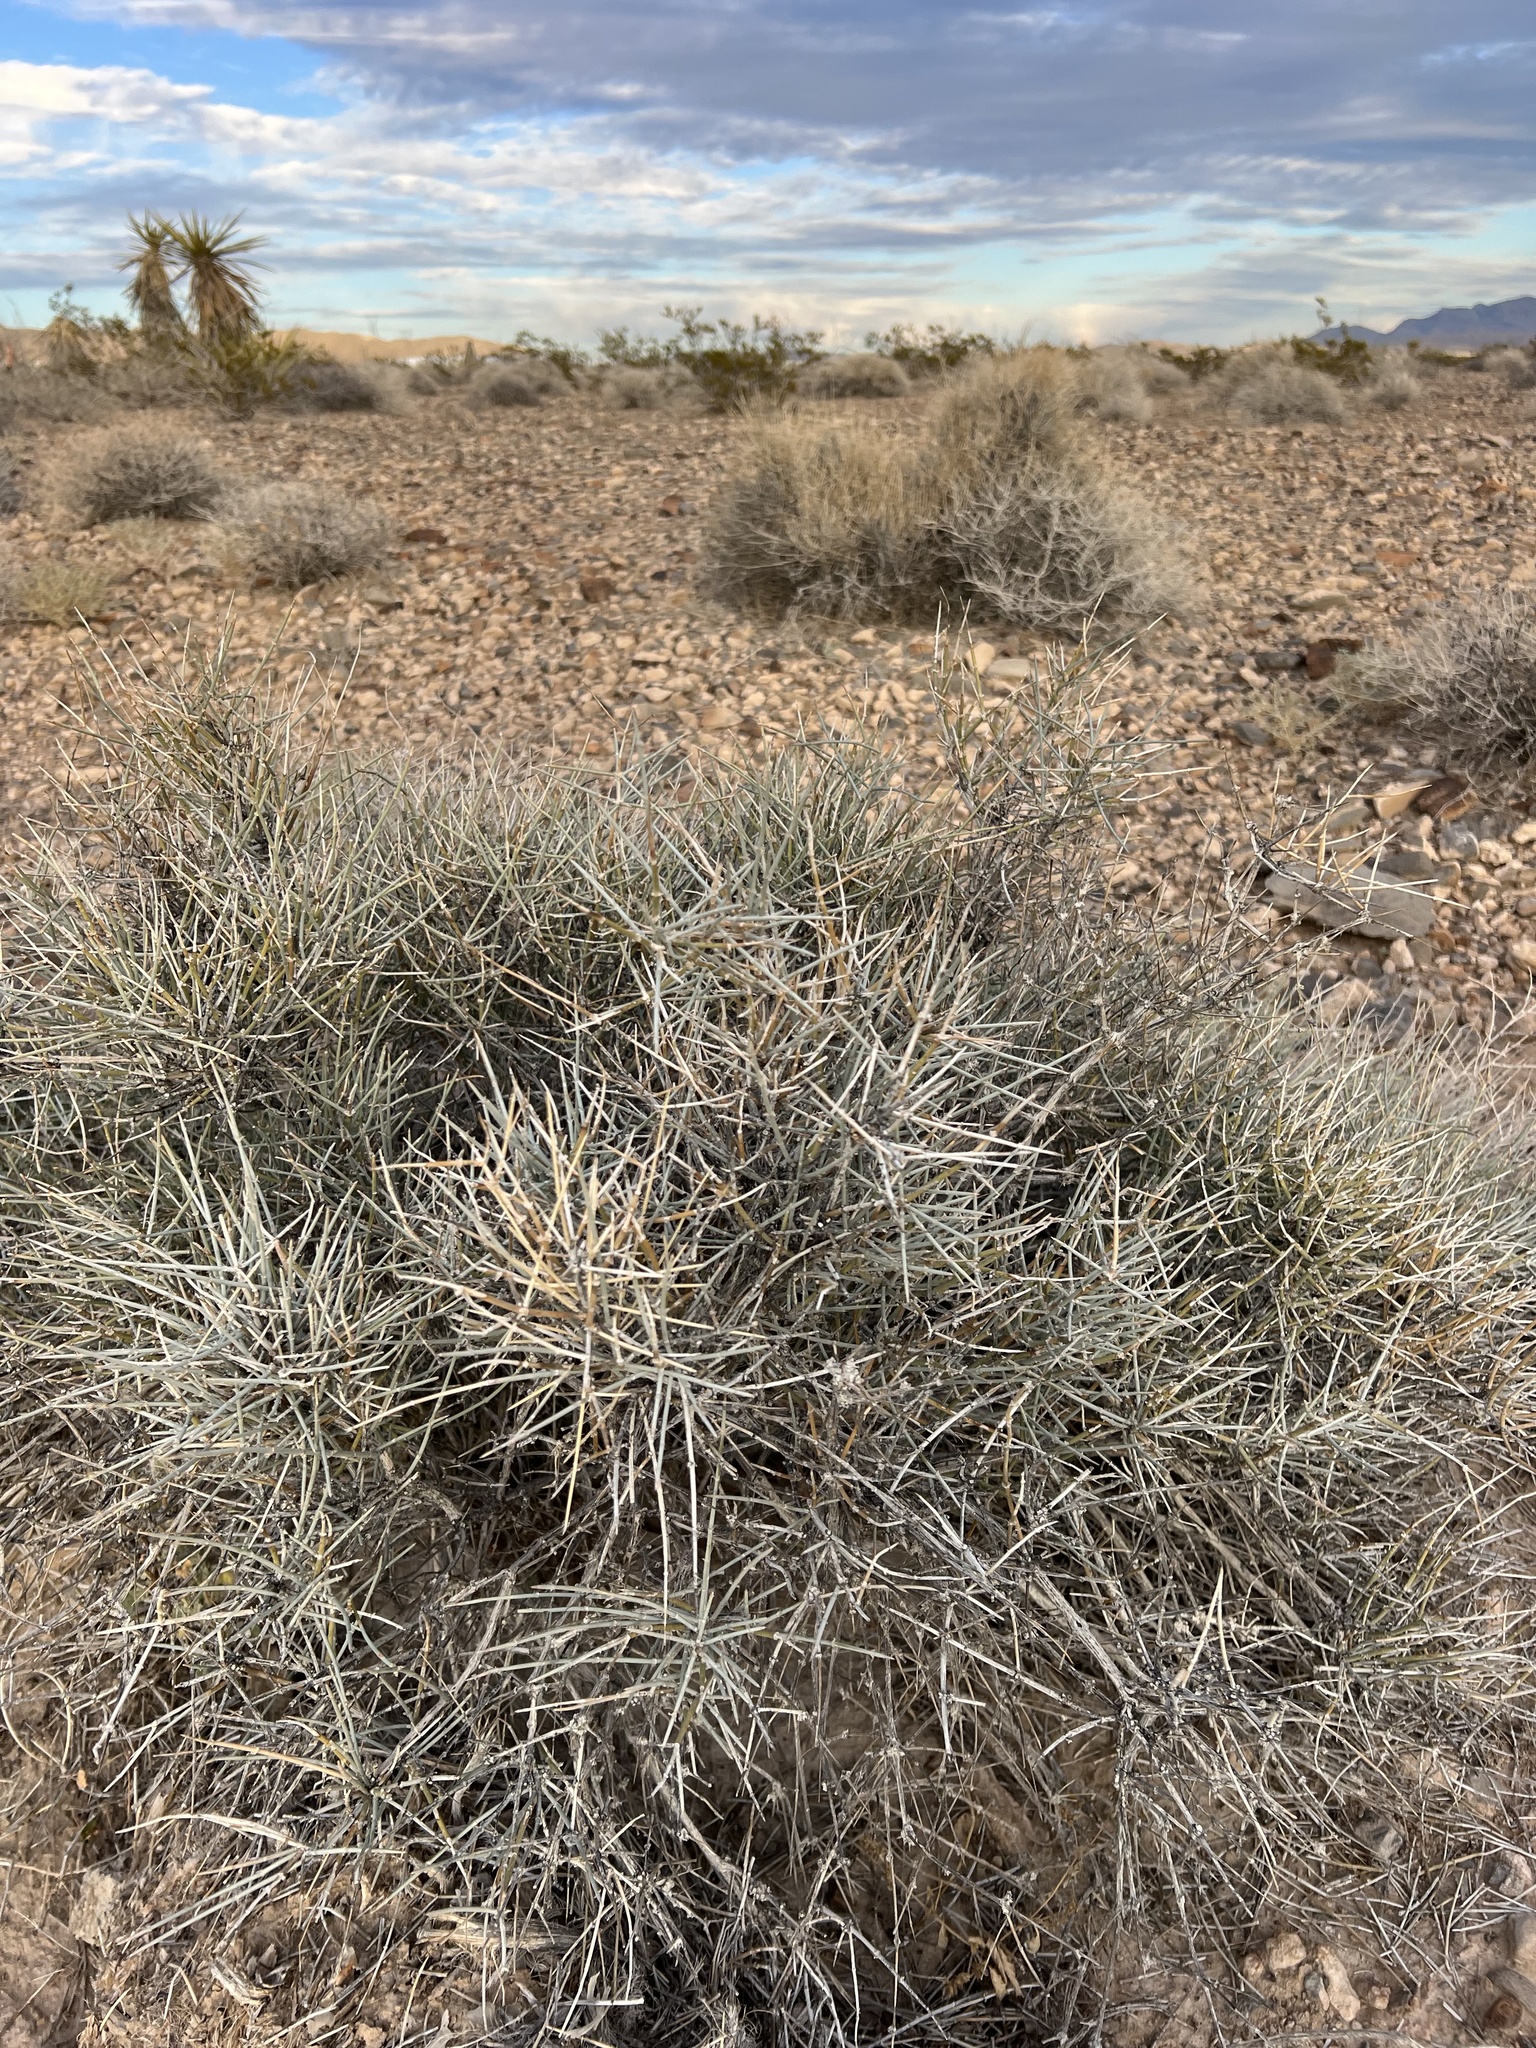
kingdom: Plantae
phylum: Tracheophyta
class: Gnetopsida
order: Ephedrales
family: Ephedraceae
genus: Ephedra
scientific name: Ephedra nevadensis
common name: Gray ephedra
